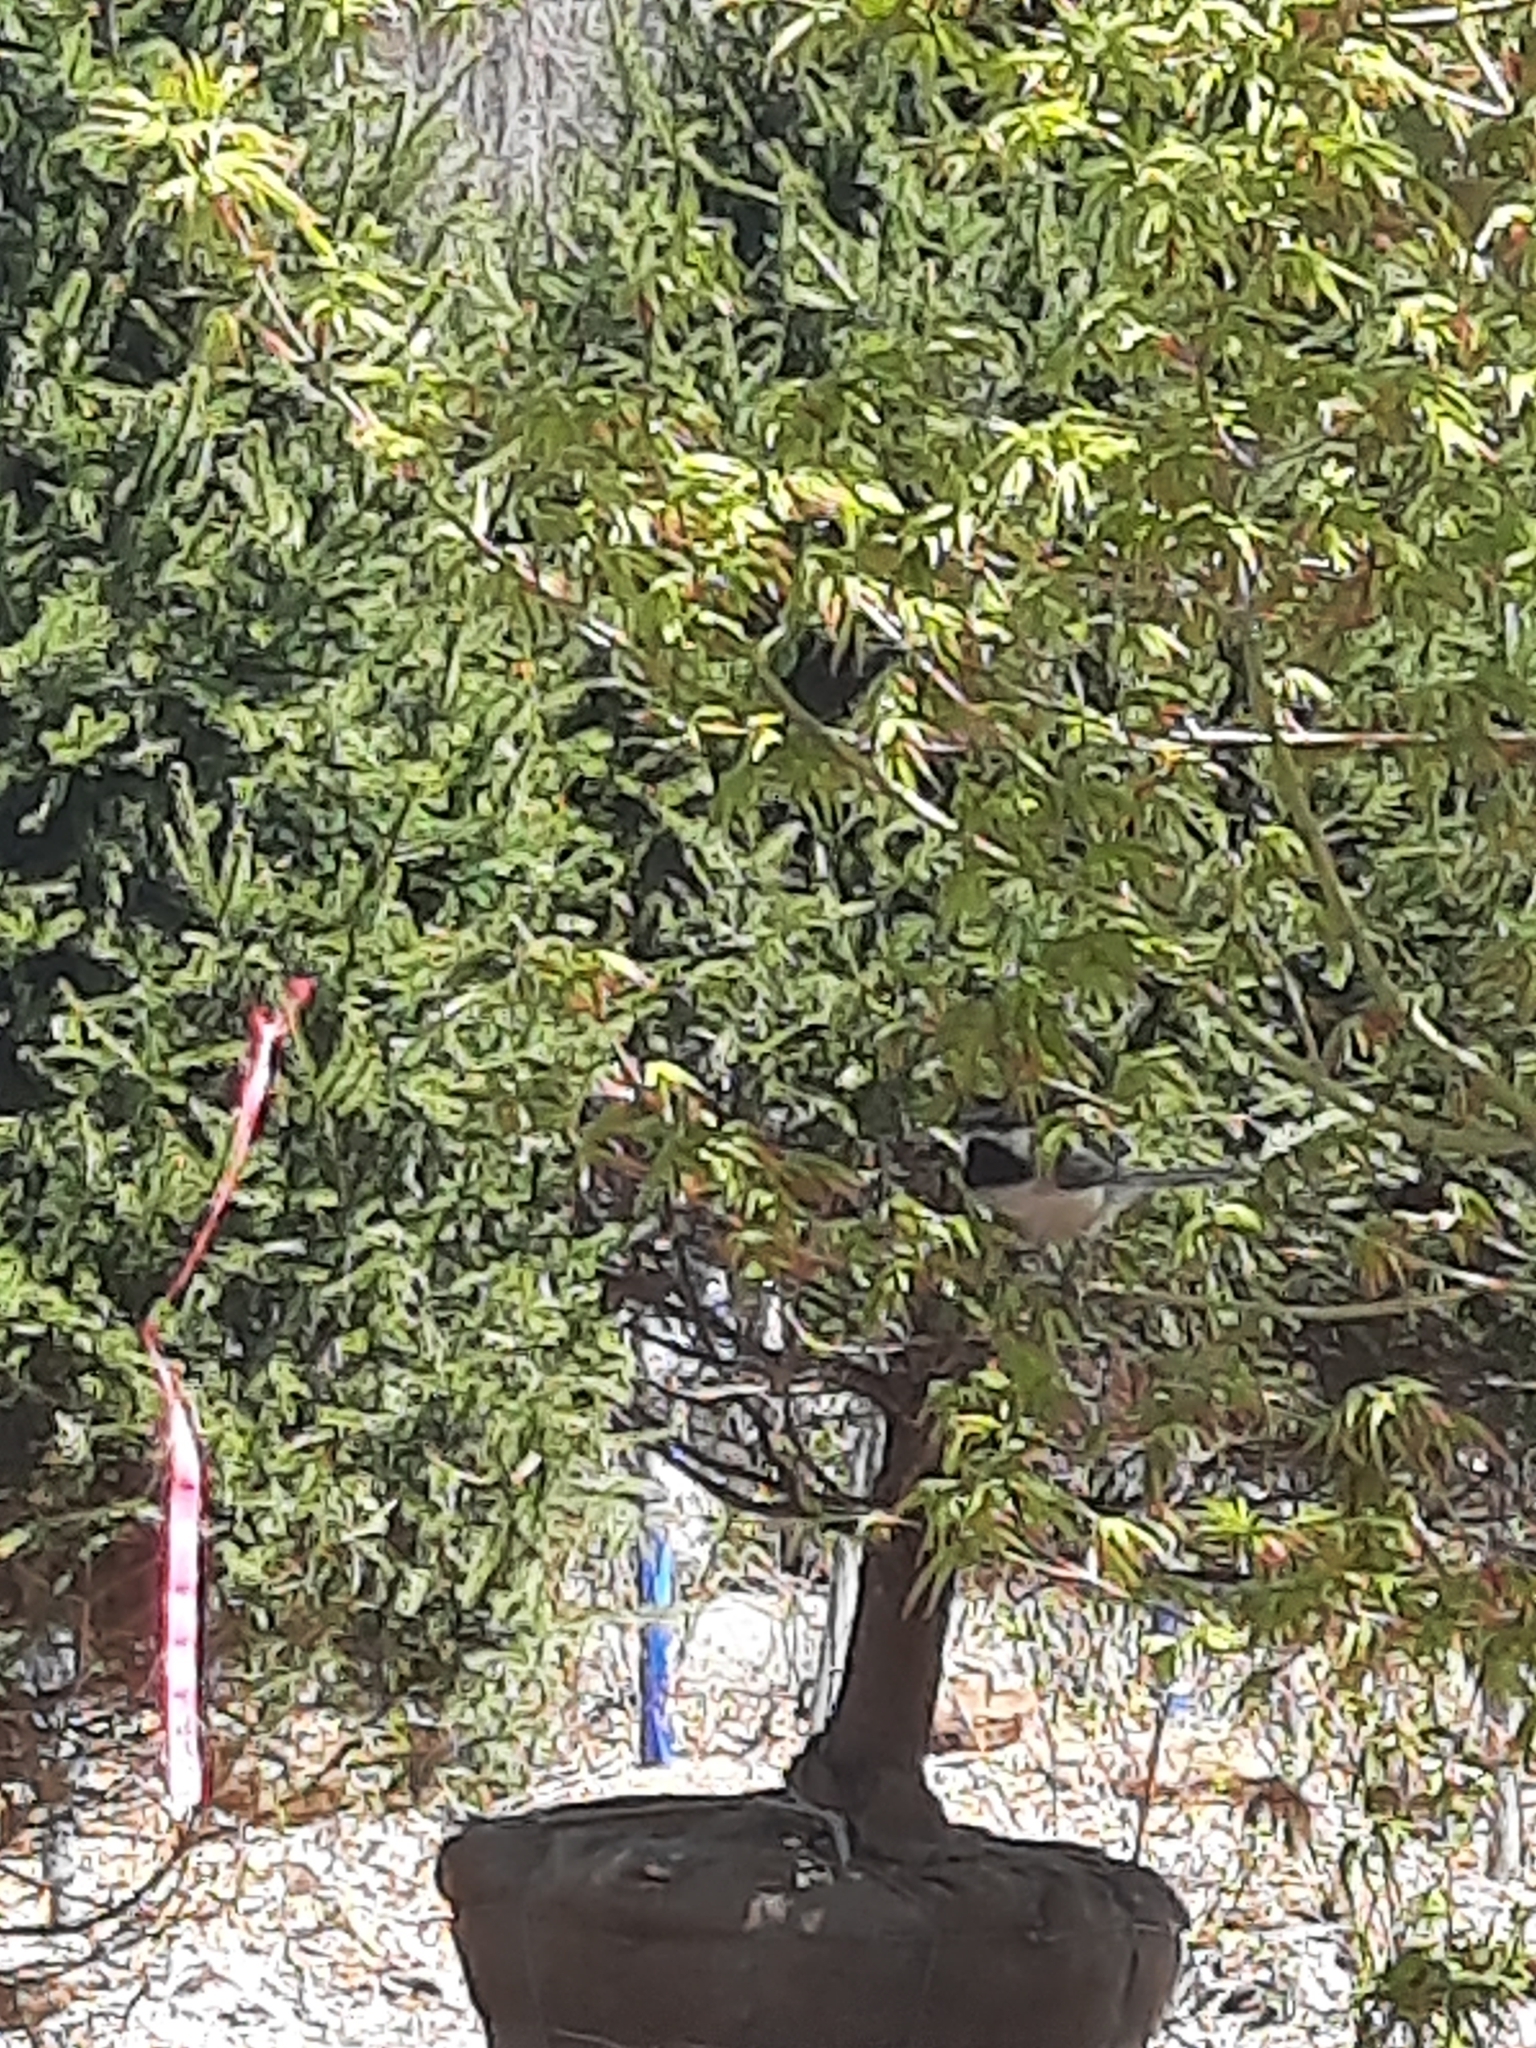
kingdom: Animalia
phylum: Chordata
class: Aves
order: Passeriformes
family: Paridae
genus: Poecile
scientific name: Poecile atricapillus
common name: Black-capped chickadee
